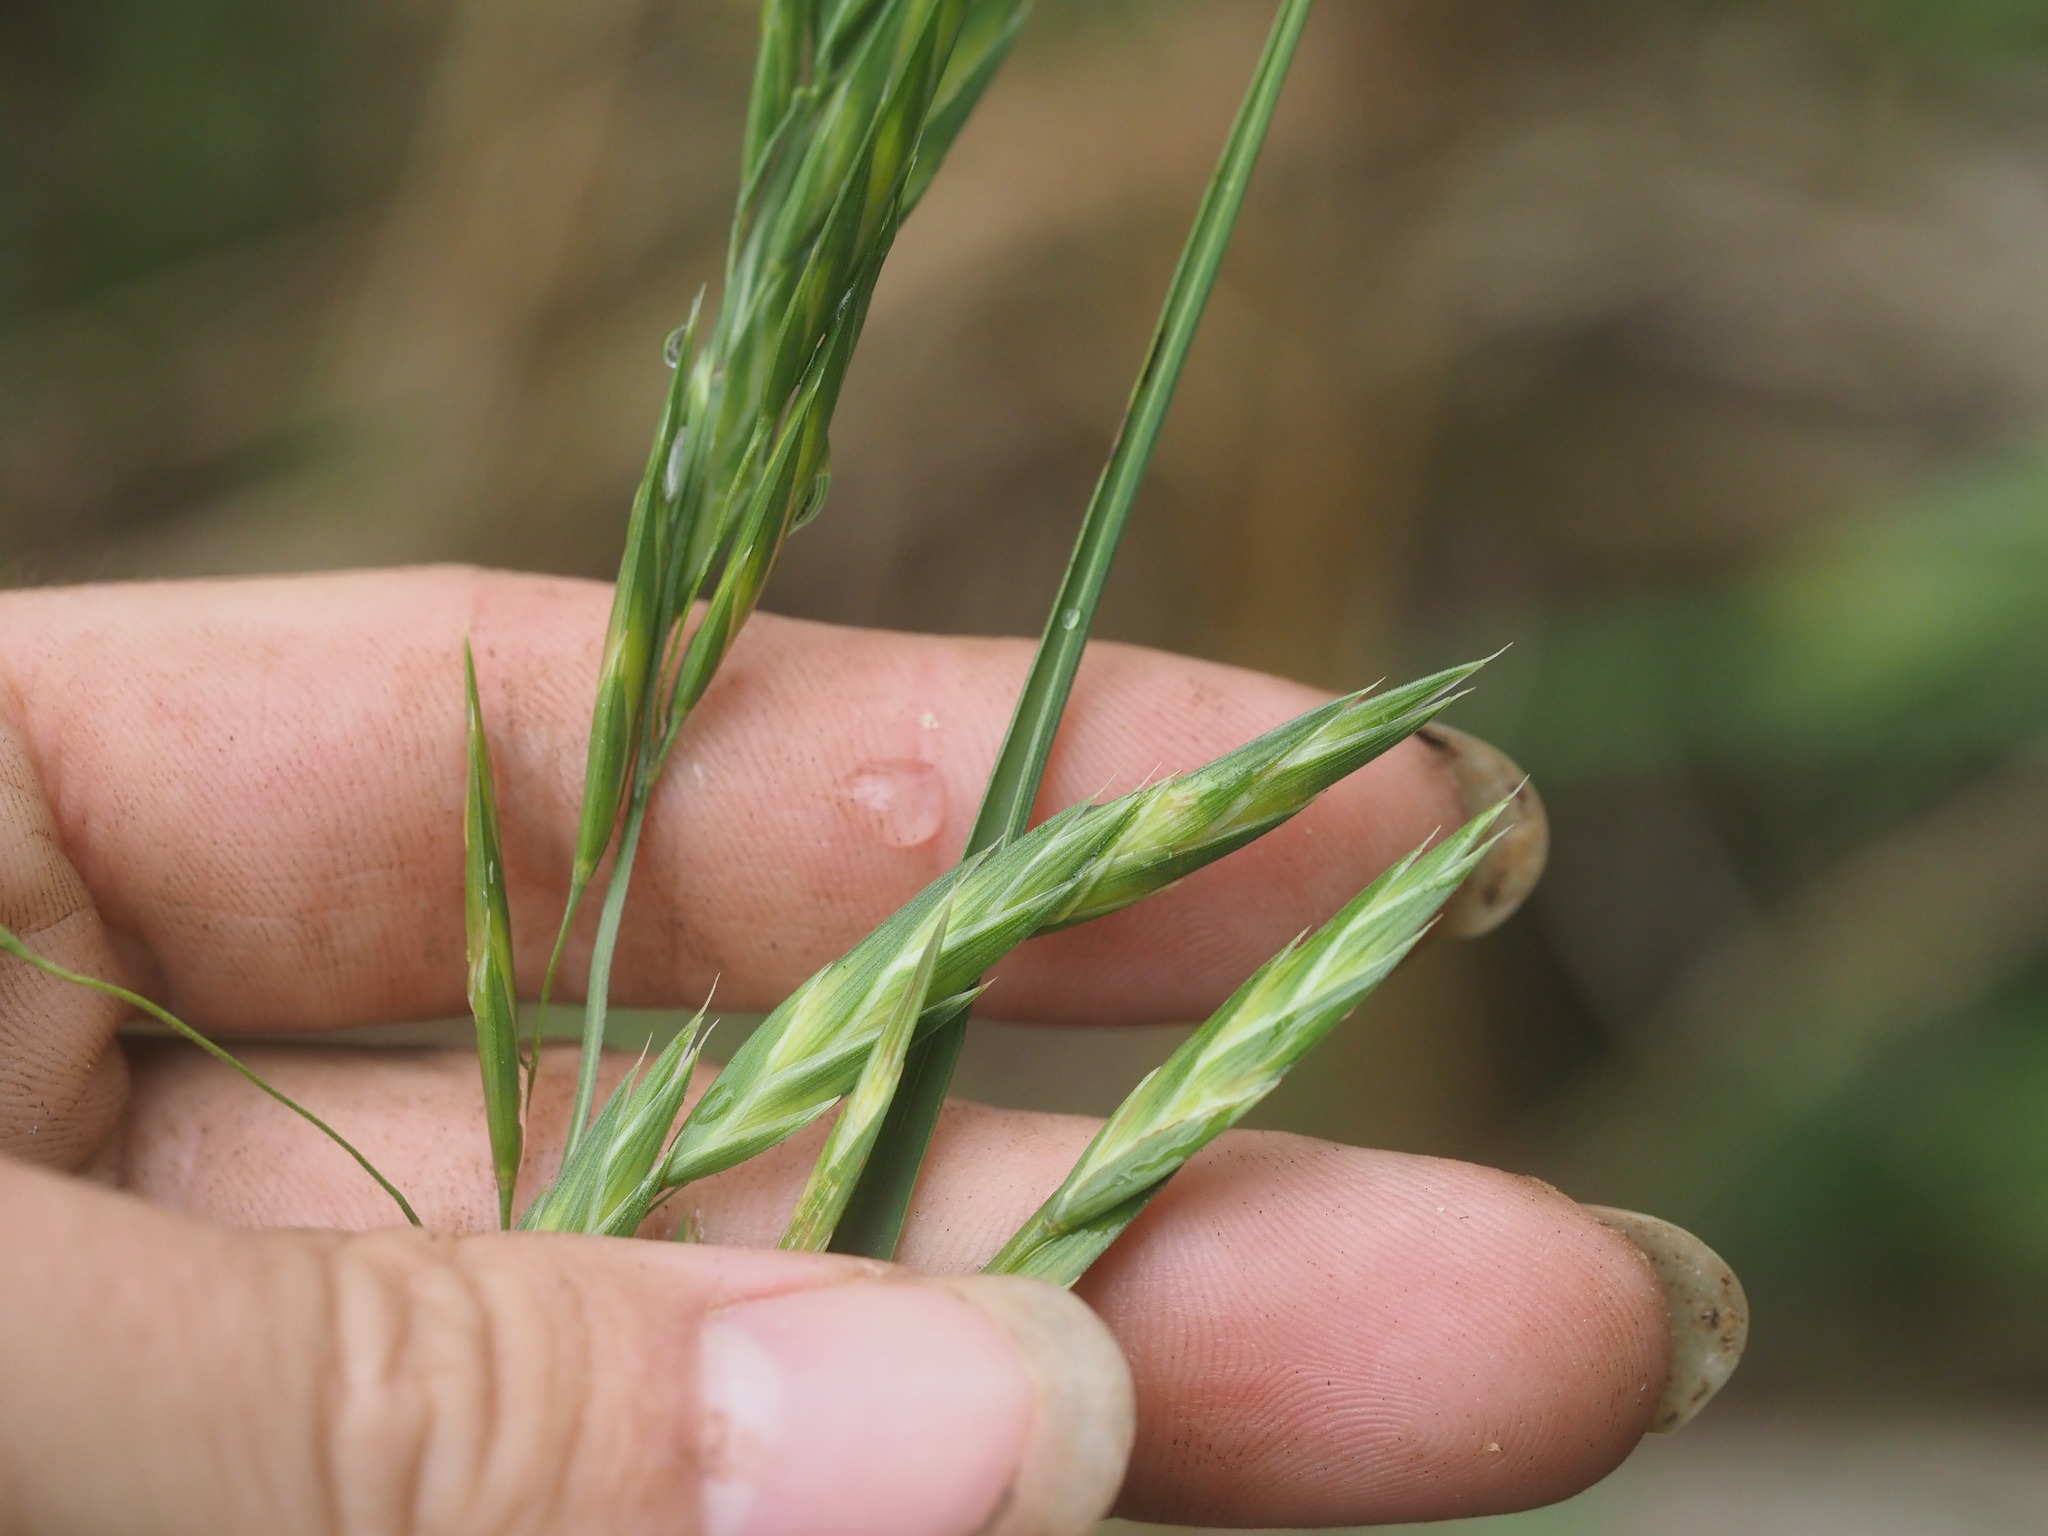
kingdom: Plantae
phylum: Tracheophyta
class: Liliopsida
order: Poales
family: Poaceae
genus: Bromus
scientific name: Bromus catharticus
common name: Rescuegrass
